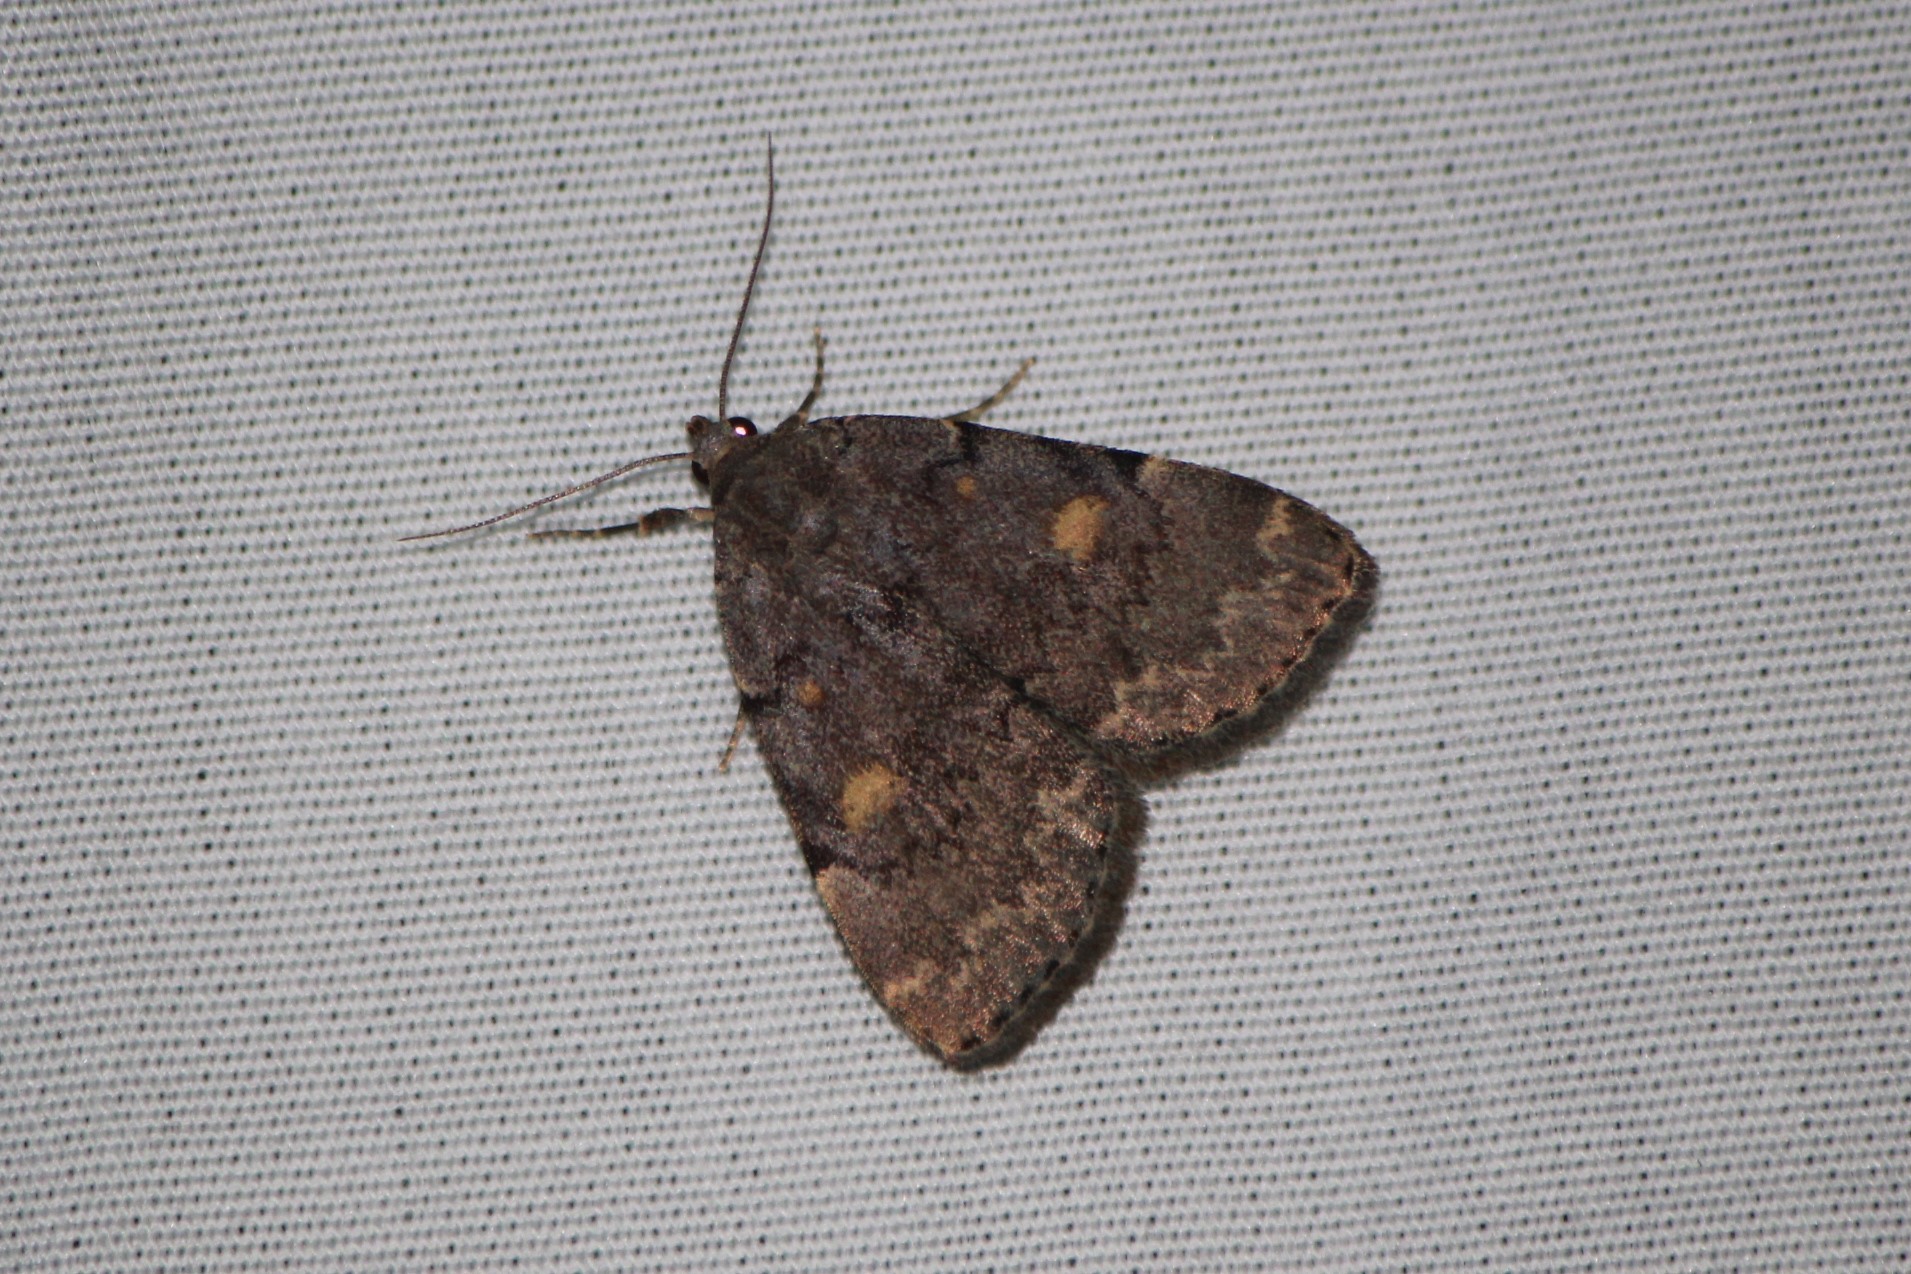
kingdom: Animalia
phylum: Arthropoda
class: Insecta
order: Lepidoptera
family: Erebidae
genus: Idia
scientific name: Idia aemula
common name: Common idia moth
